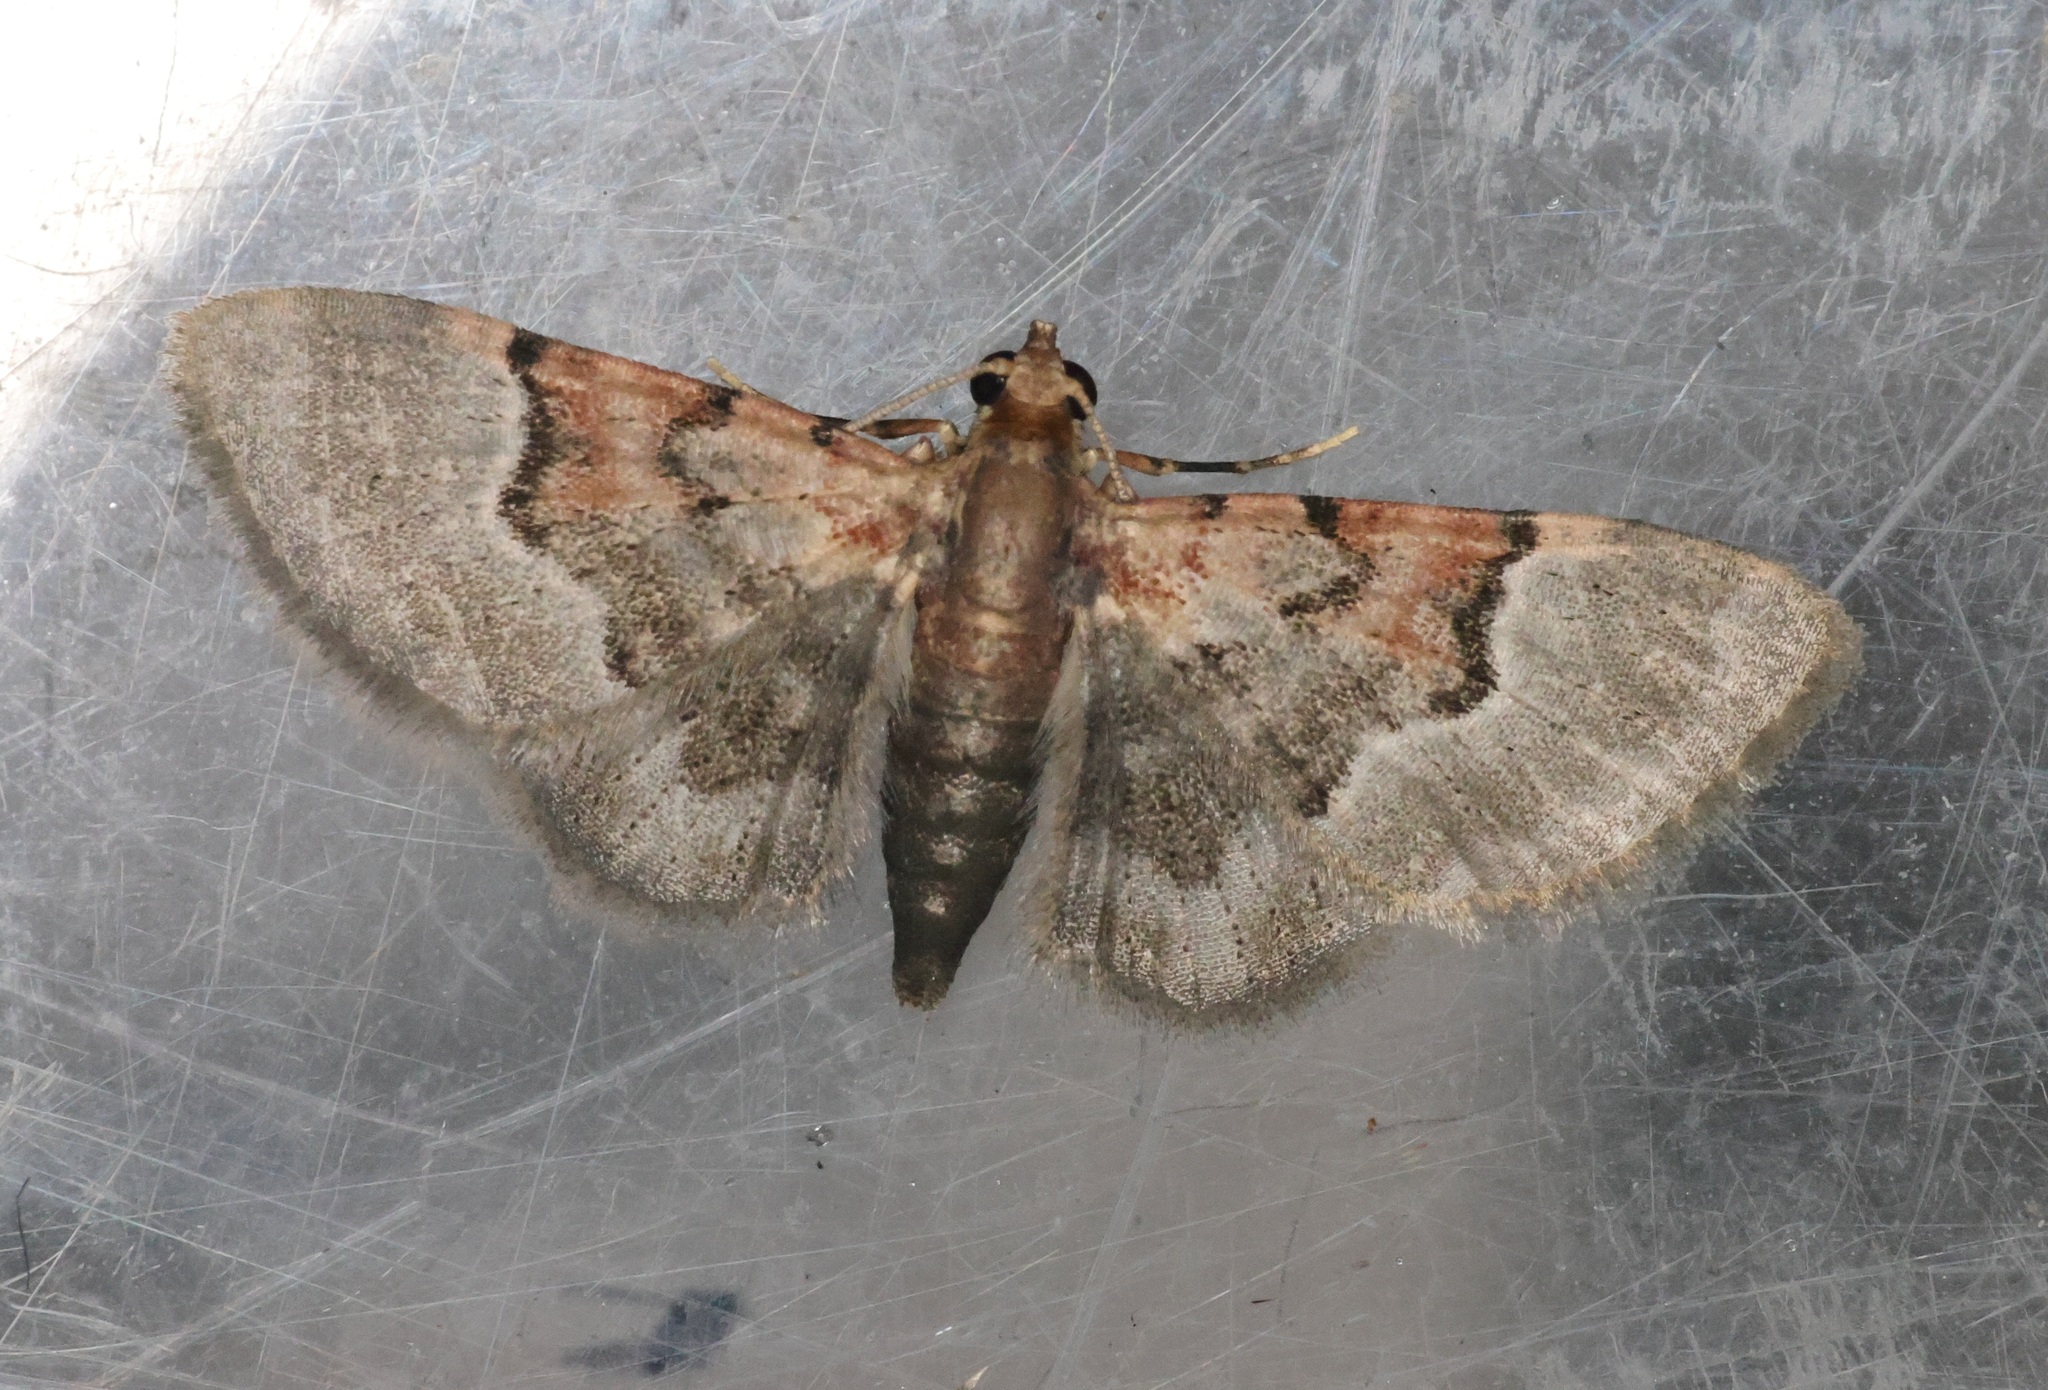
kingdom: Animalia
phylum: Arthropoda
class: Insecta
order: Lepidoptera
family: Geometridae
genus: Glaucoclystis
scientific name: Glaucoclystis griseorufa
